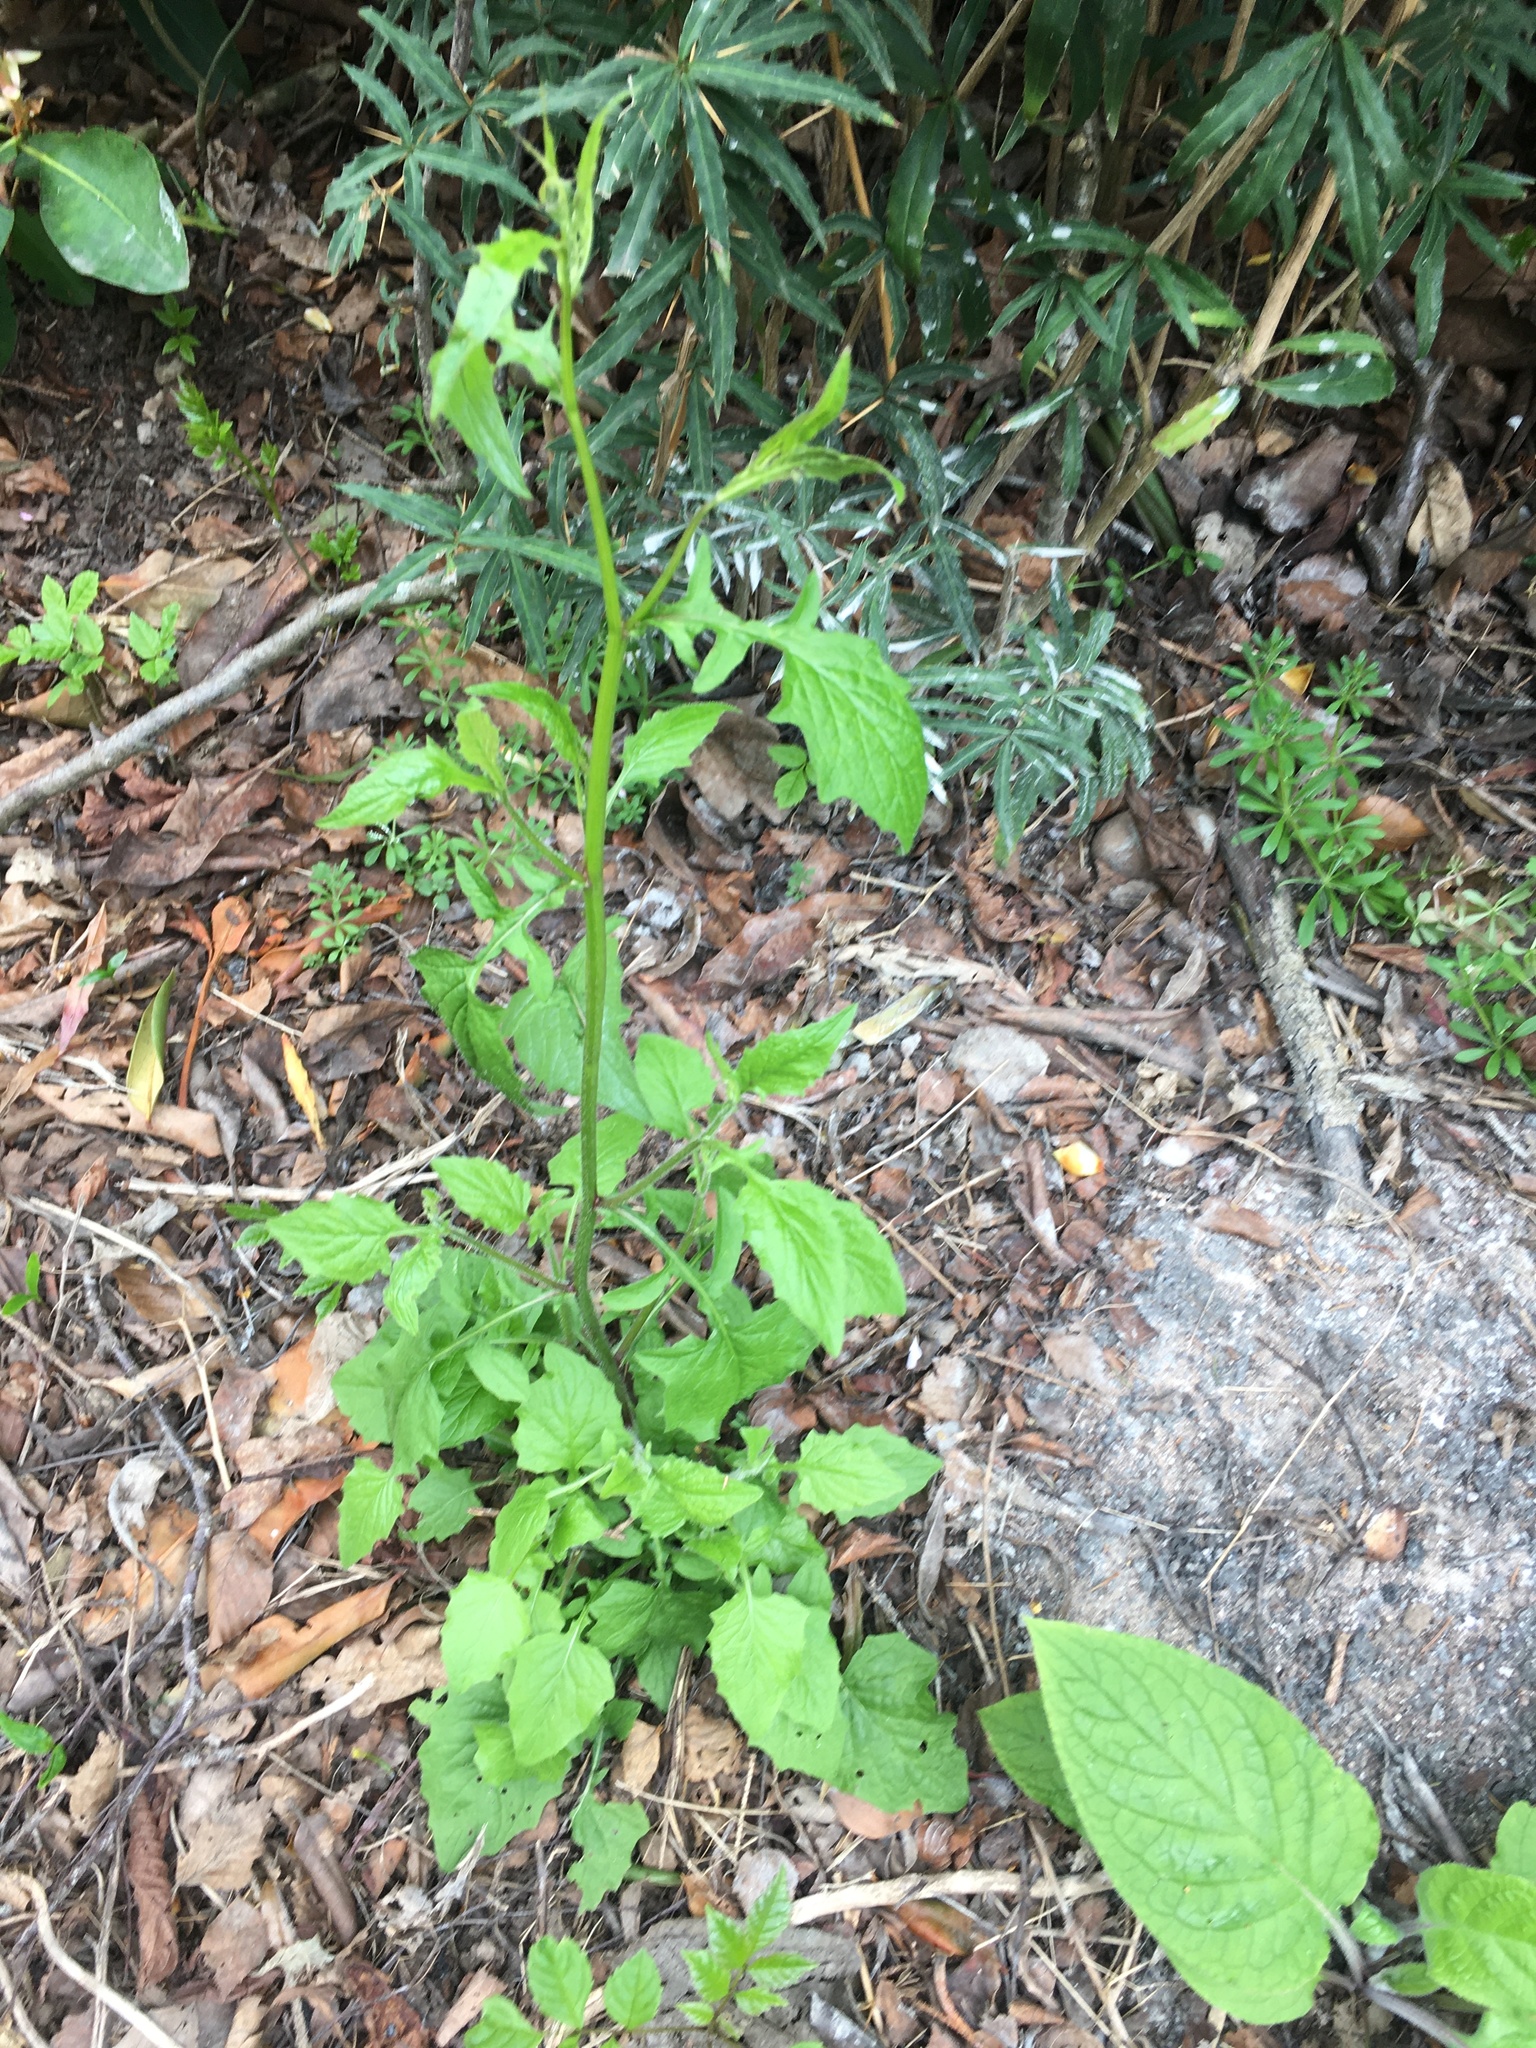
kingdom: Plantae
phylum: Tracheophyta
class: Magnoliopsida
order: Asterales
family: Asteraceae
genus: Lapsana
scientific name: Lapsana communis
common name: Nipplewort
